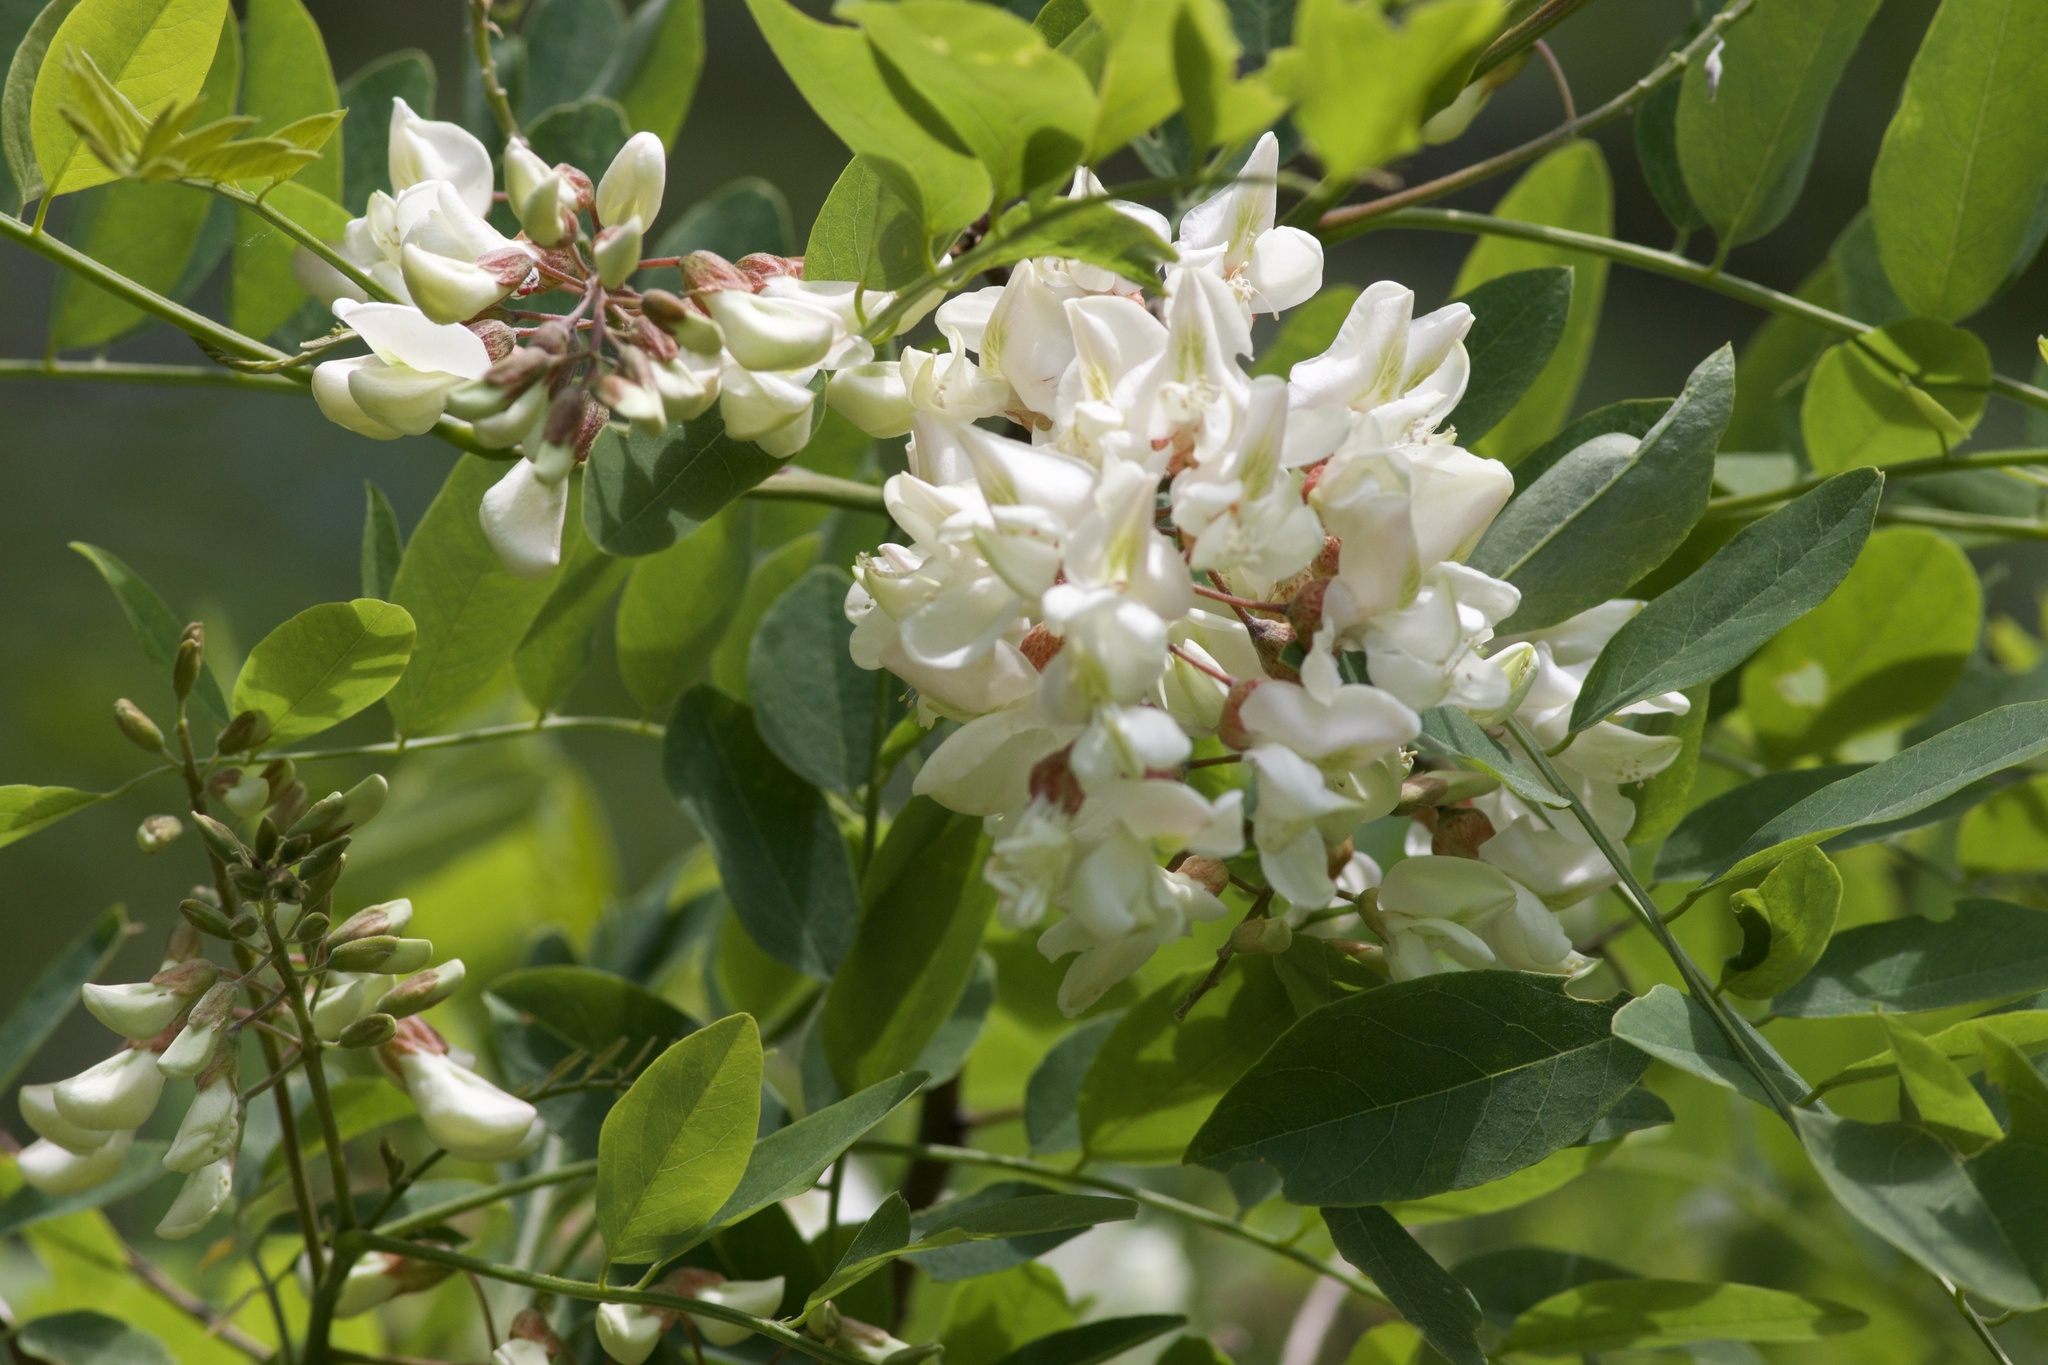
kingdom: Plantae
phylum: Tracheophyta
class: Magnoliopsida
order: Fabales
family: Fabaceae
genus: Robinia
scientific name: Robinia pseudoacacia
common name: Black locust
